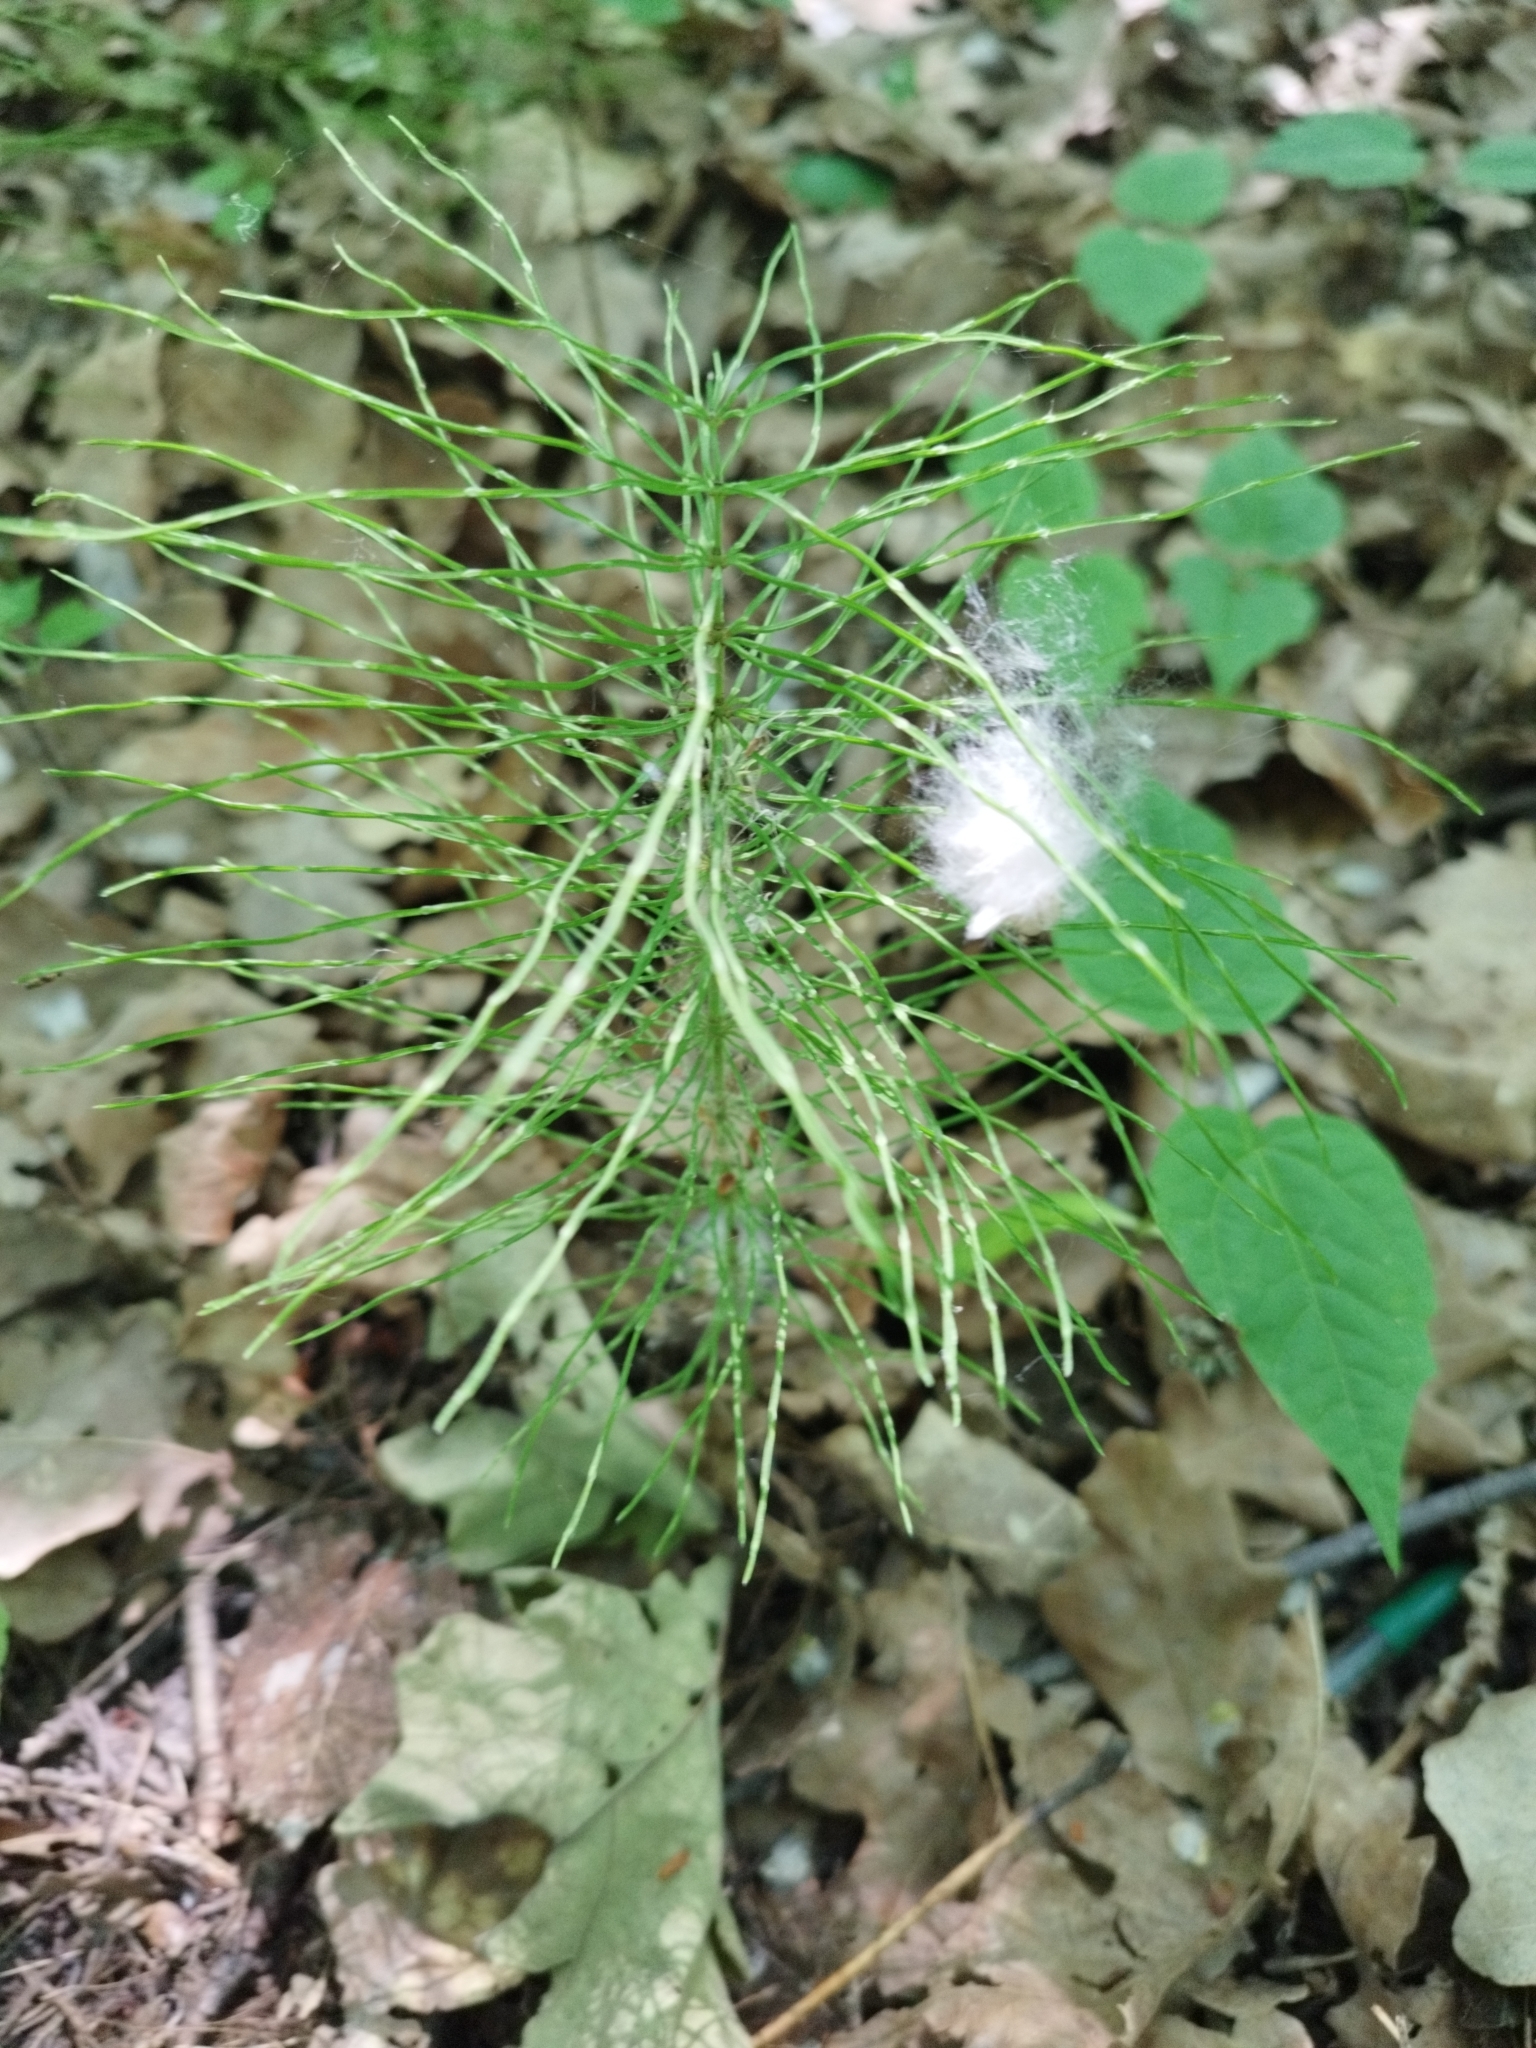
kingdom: Plantae
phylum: Tracheophyta
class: Polypodiopsida
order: Equisetales
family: Equisetaceae
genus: Equisetum
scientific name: Equisetum pratense
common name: Meadow horsetail
